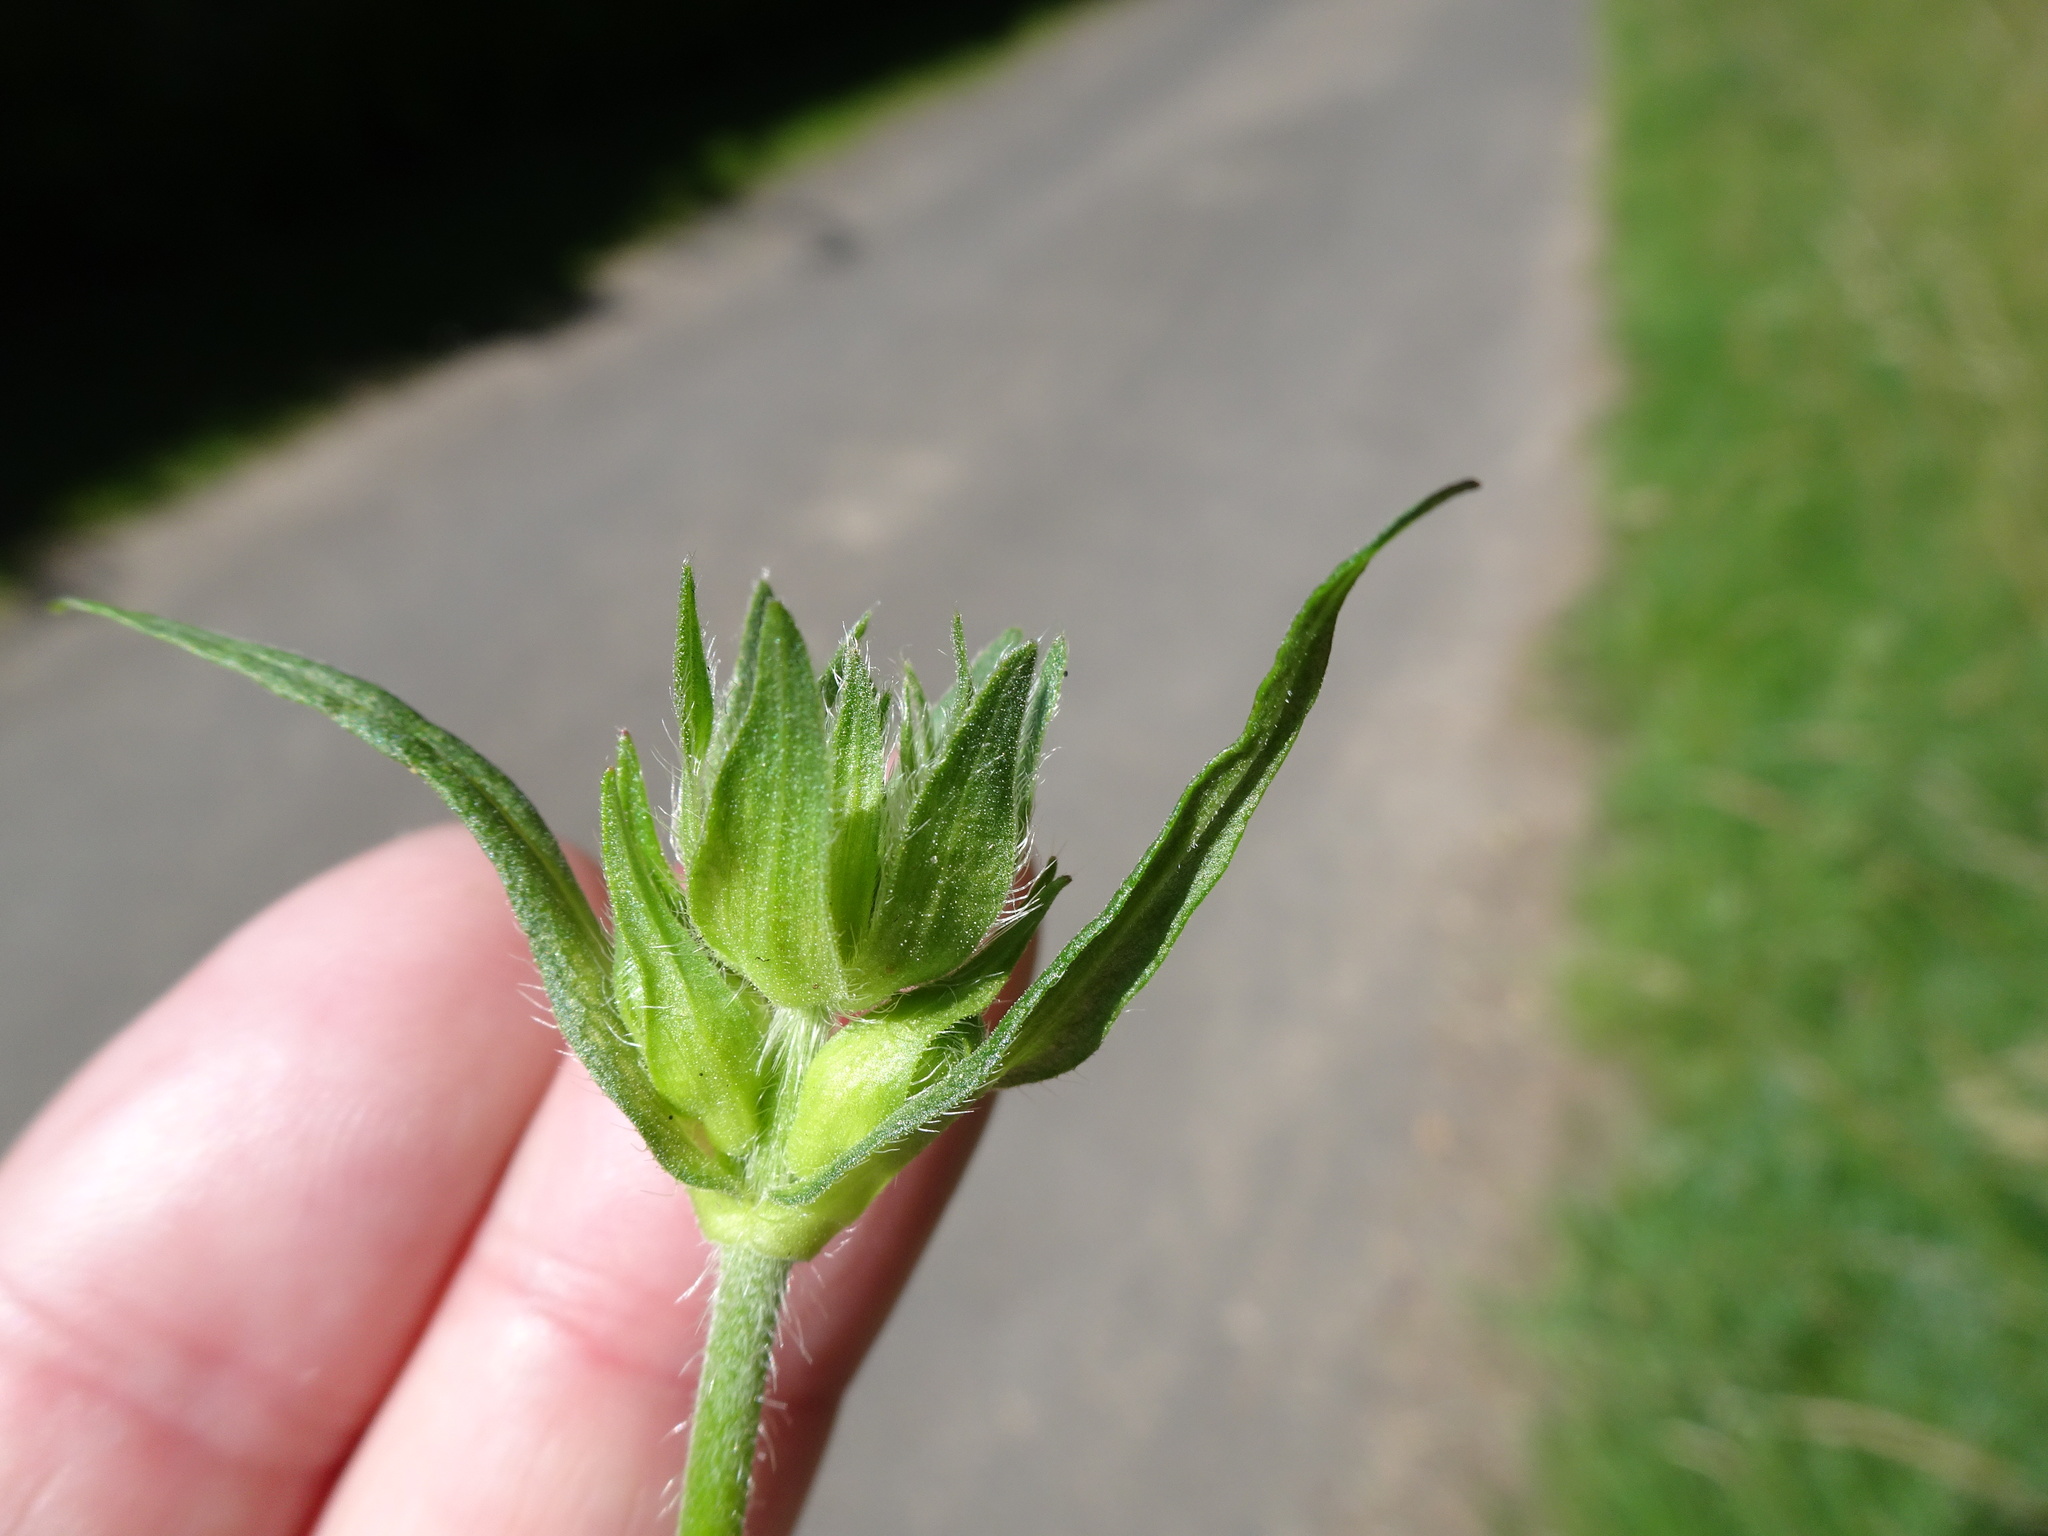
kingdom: Plantae
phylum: Tracheophyta
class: Magnoliopsida
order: Dipsacales
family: Caprifoliaceae
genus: Knautia
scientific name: Knautia arvensis
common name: Field scabiosa
